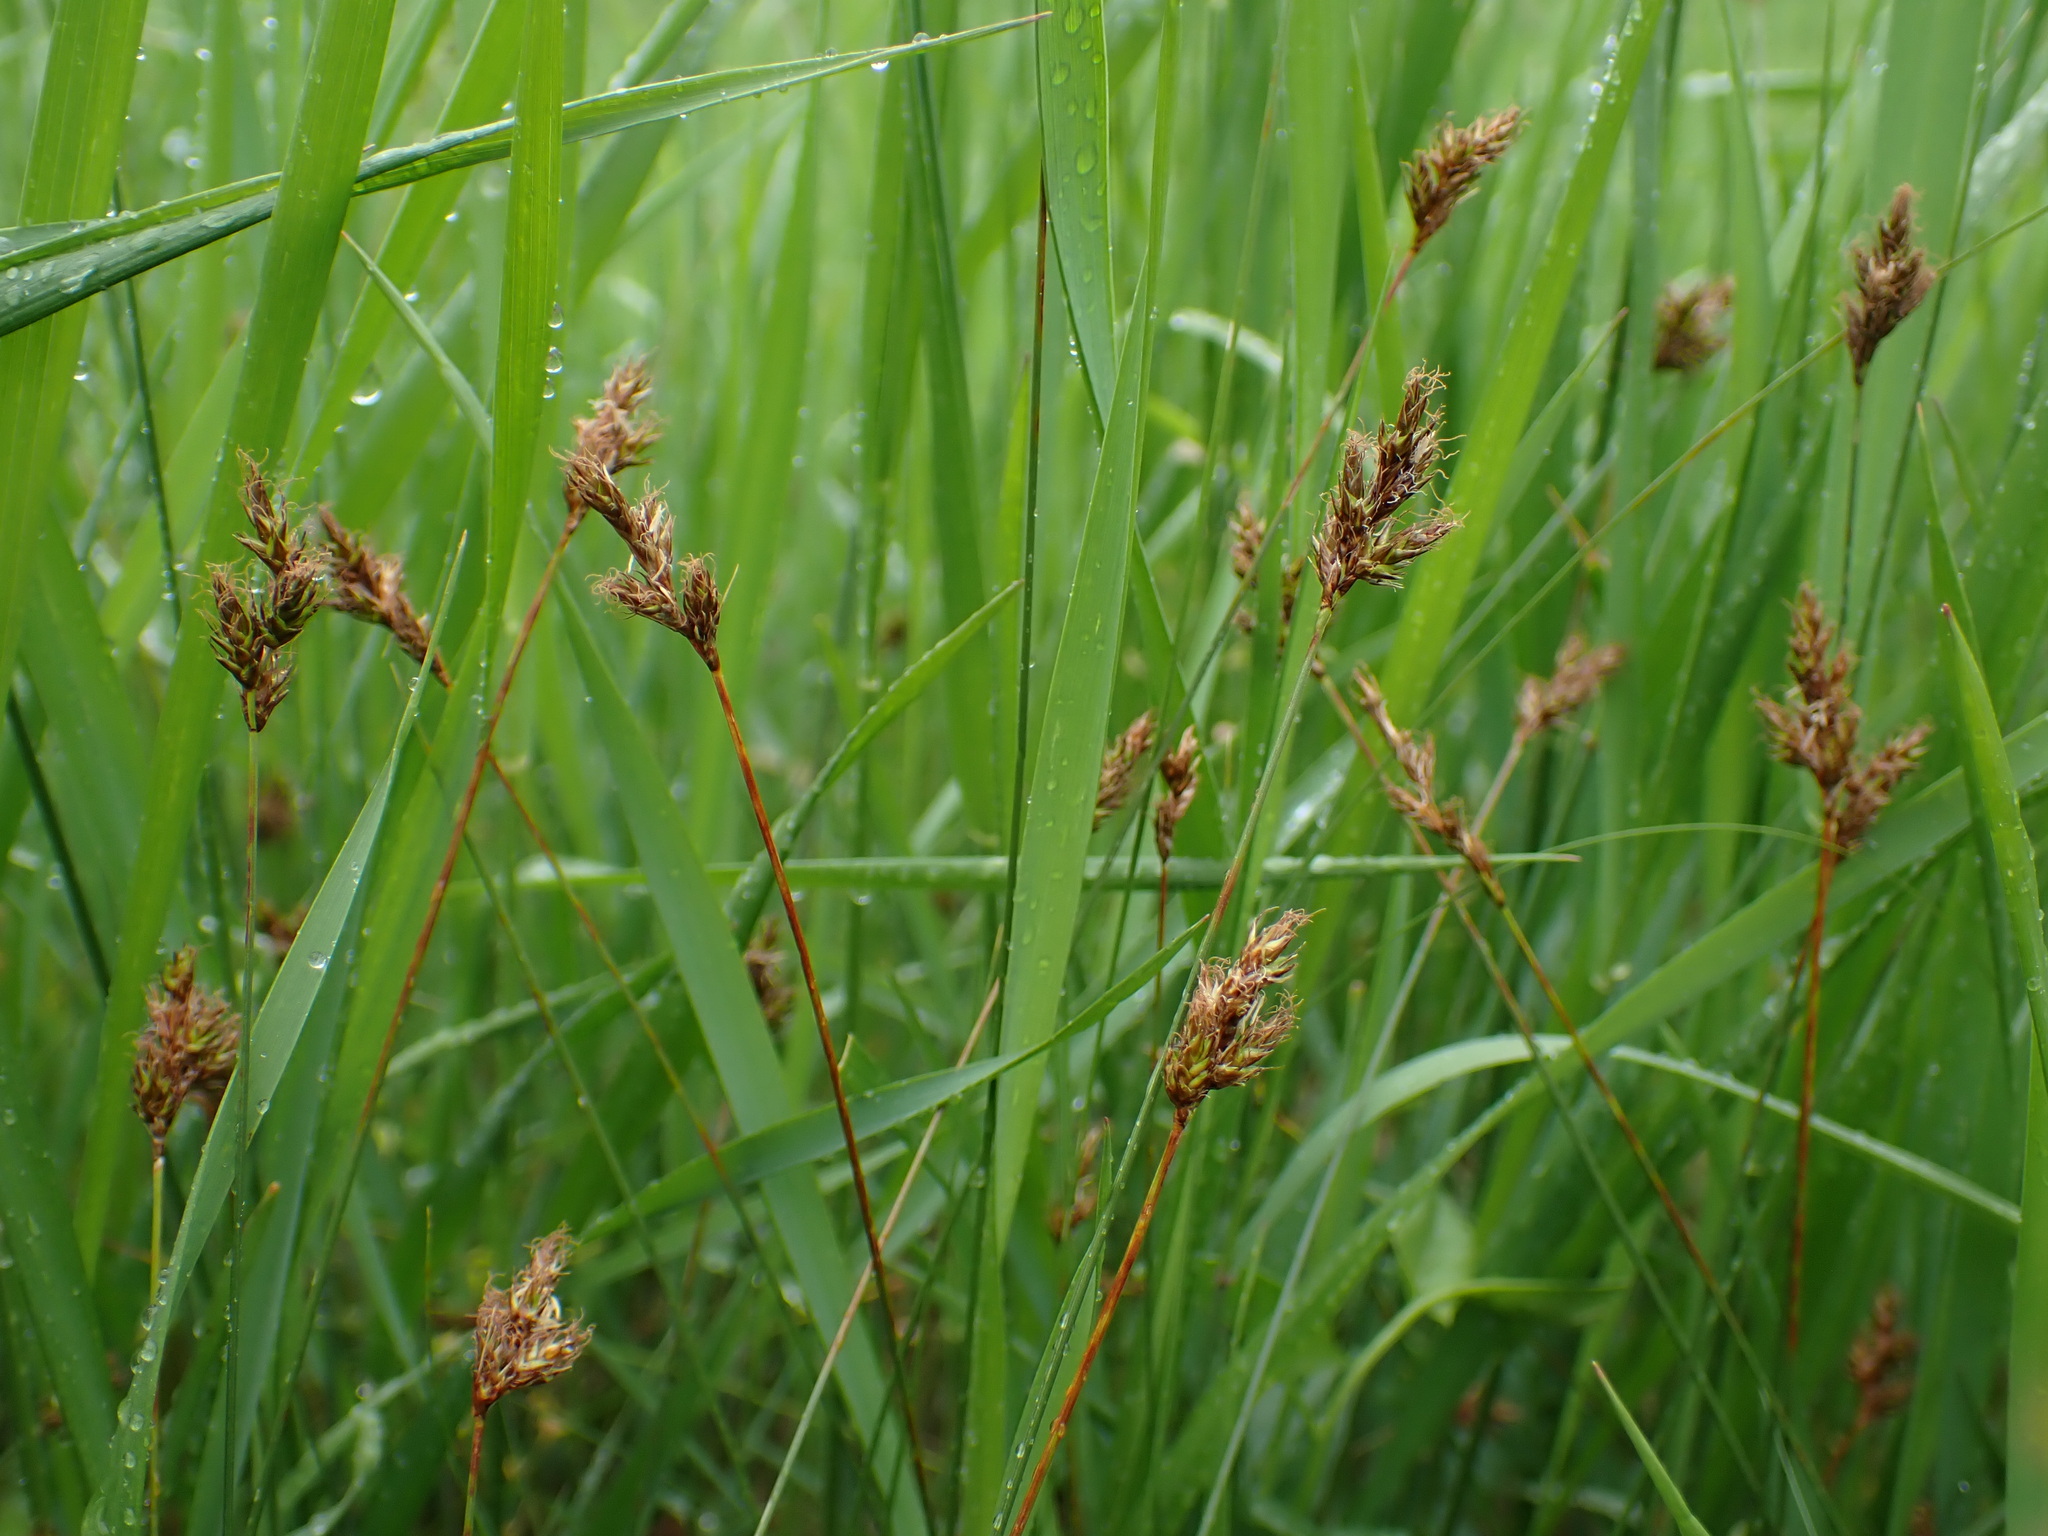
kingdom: Plantae
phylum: Tracheophyta
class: Liliopsida
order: Poales
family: Cyperaceae
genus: Carex
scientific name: Carex praecox
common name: Early sedge
